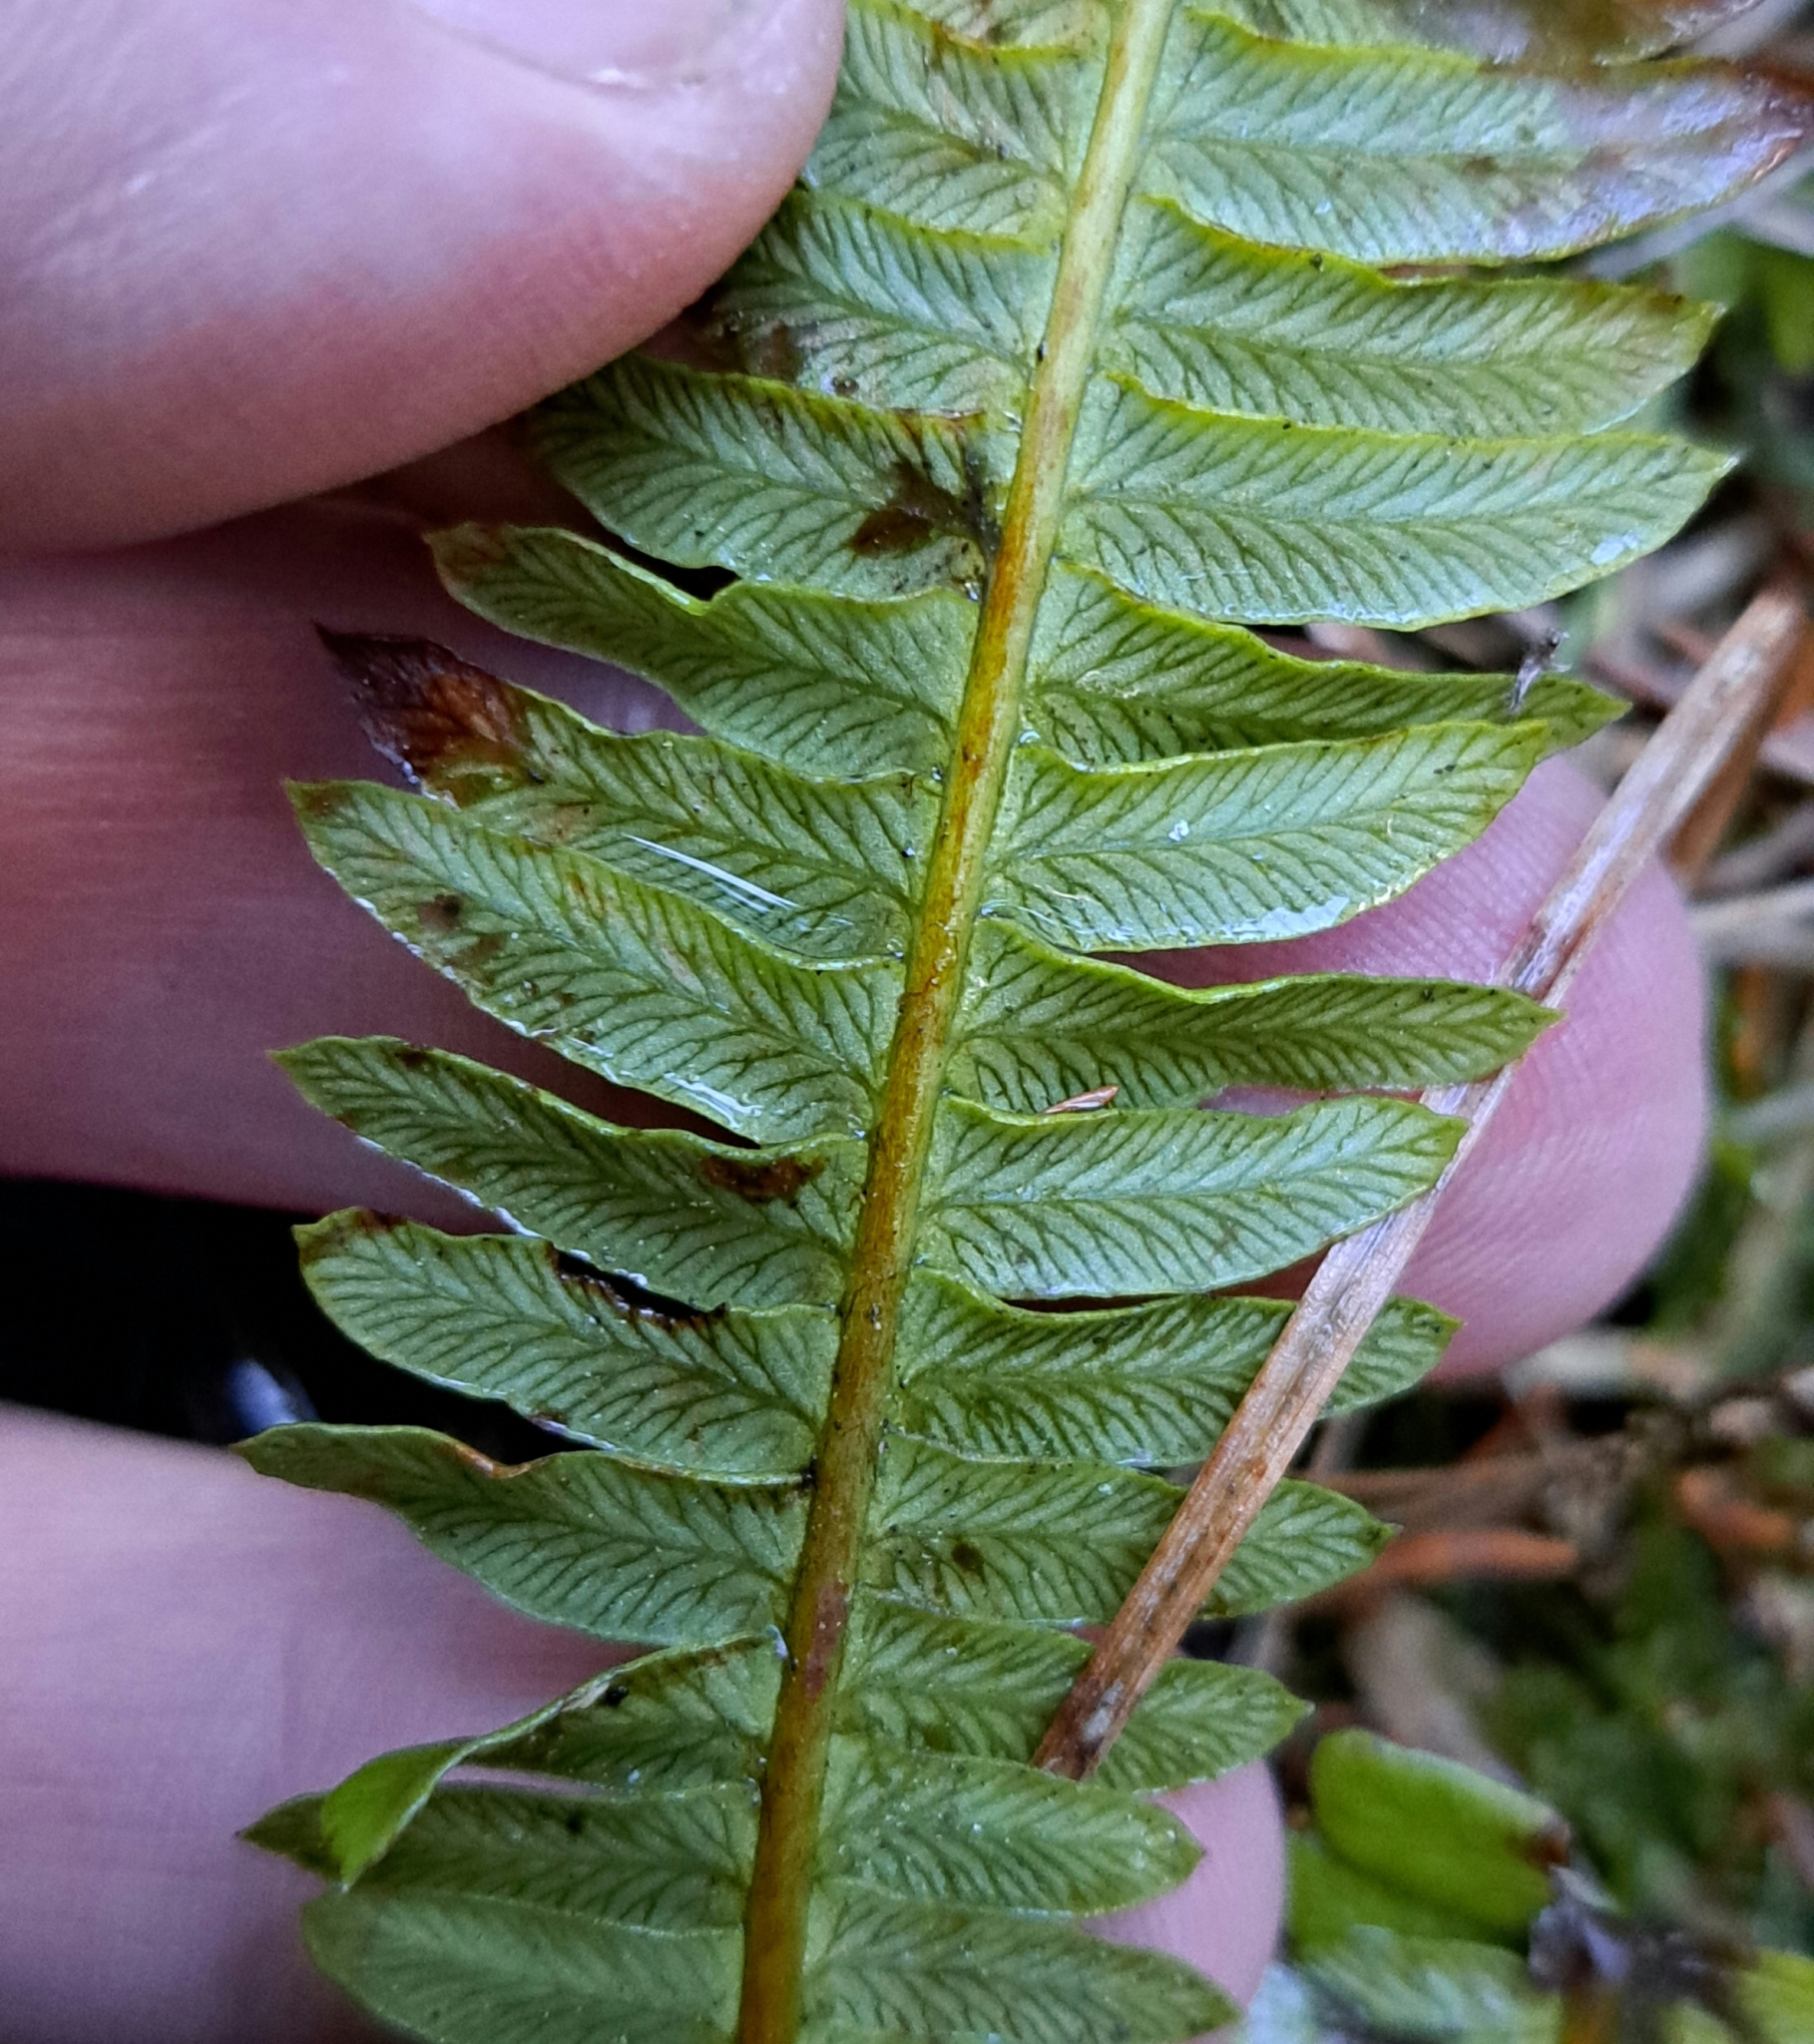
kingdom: Plantae
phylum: Tracheophyta
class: Polypodiopsida
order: Polypodiales
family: Blechnaceae
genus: Struthiopteris
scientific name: Struthiopteris spicant
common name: Deer fern
